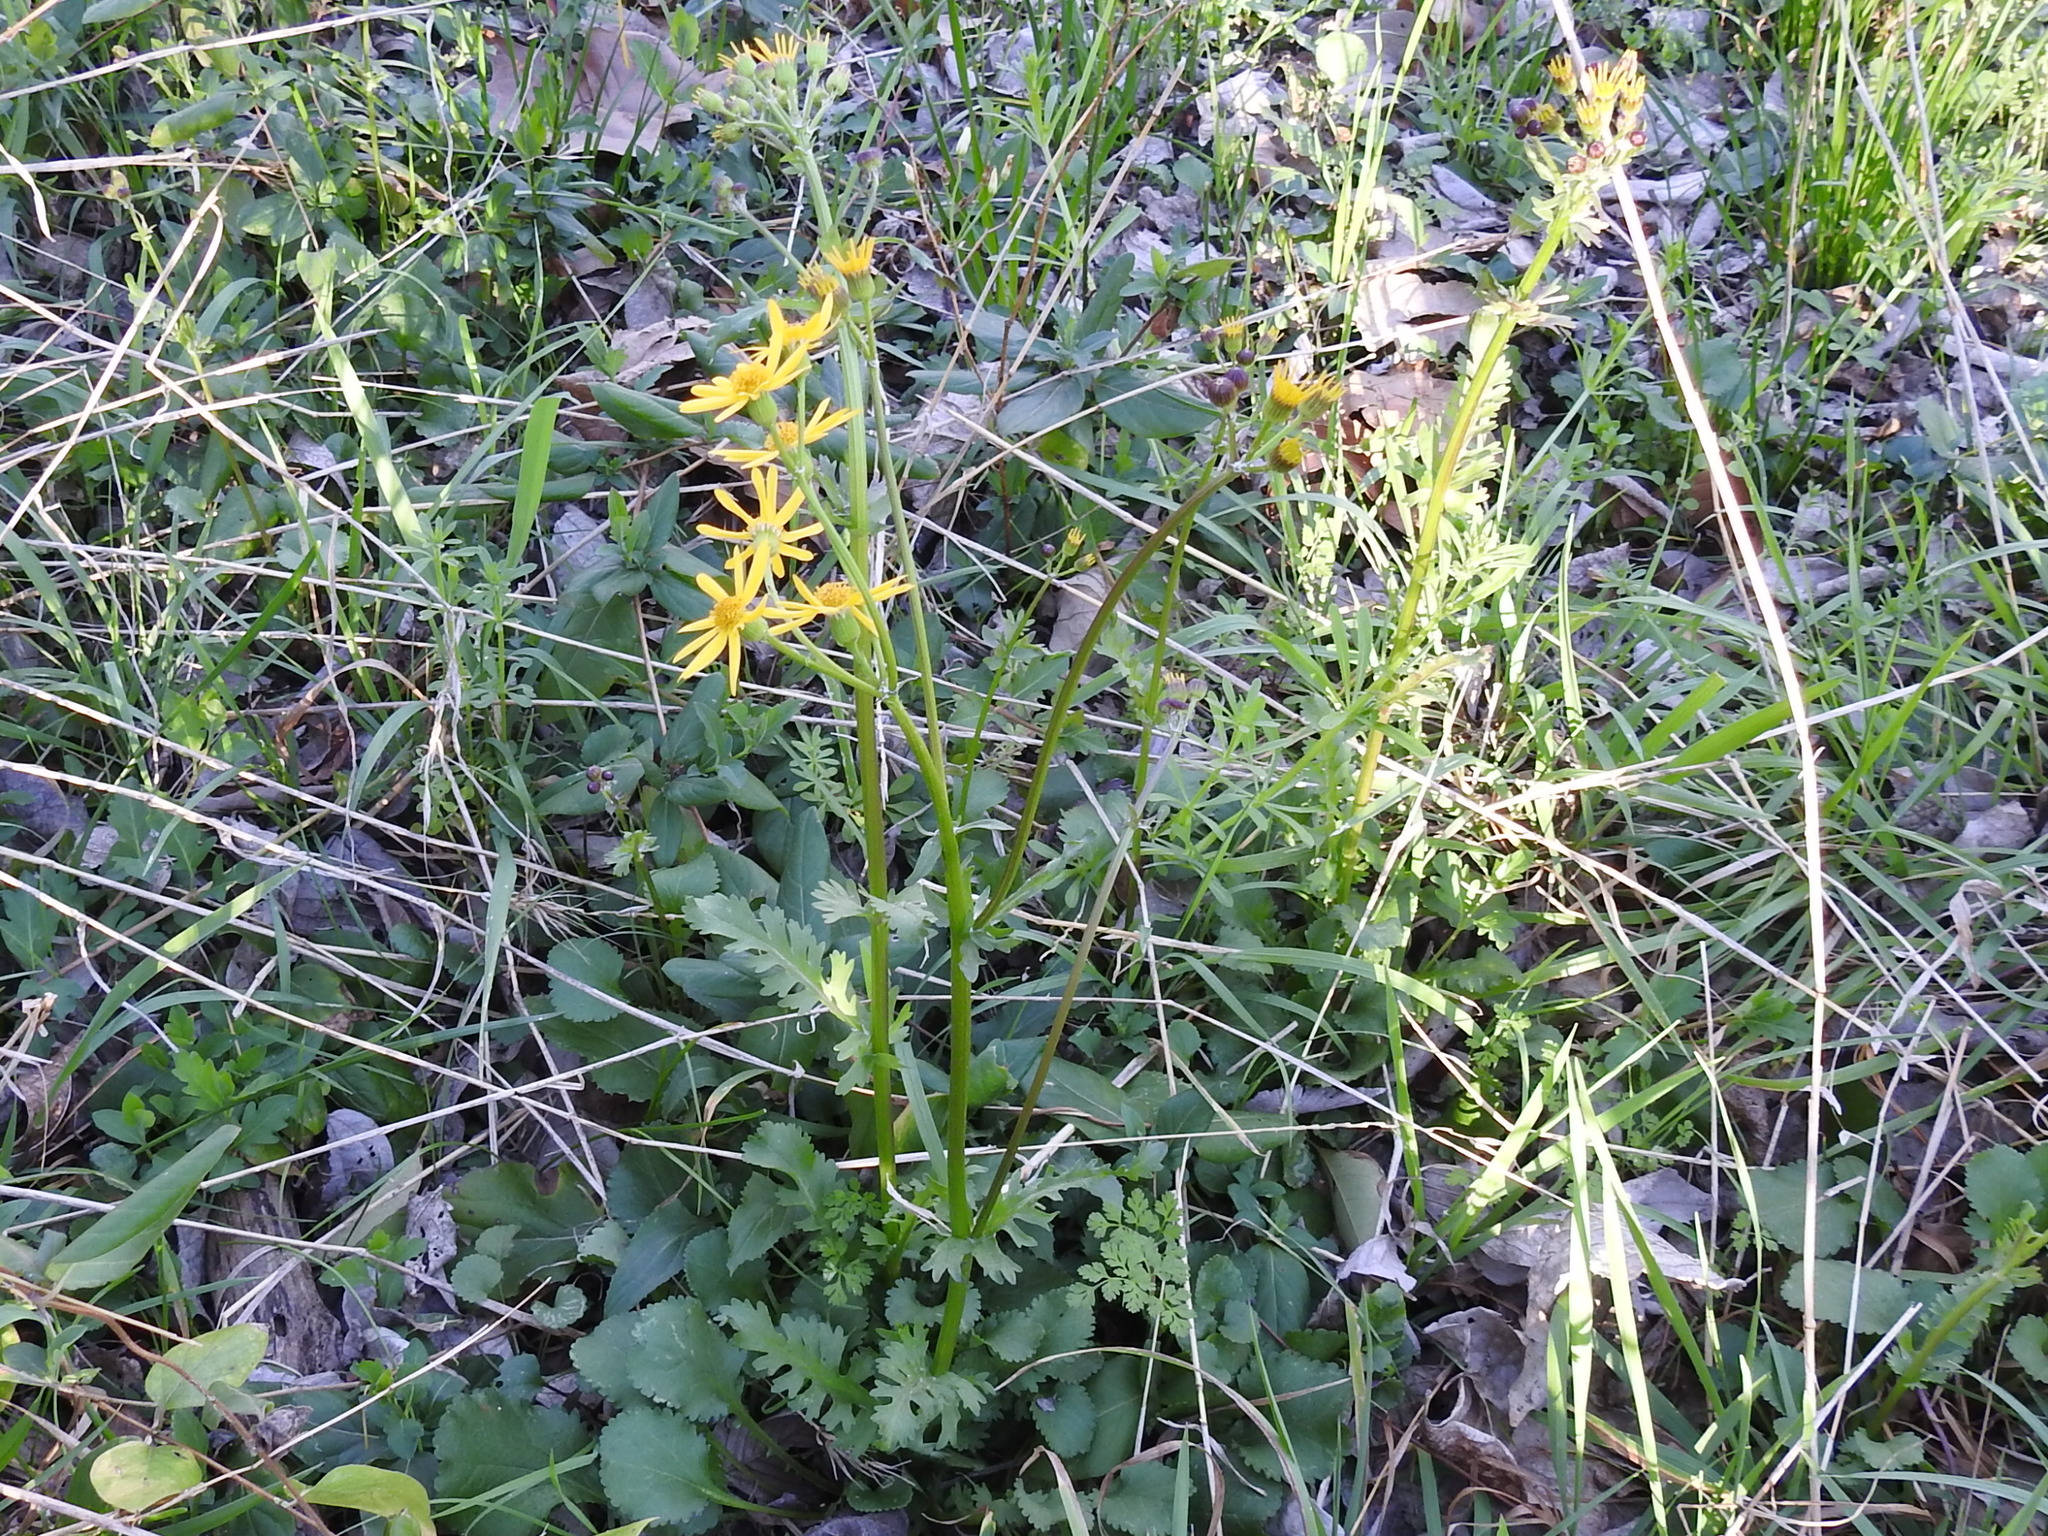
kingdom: Plantae
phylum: Tracheophyta
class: Magnoliopsida
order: Asterales
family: Asteraceae
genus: Packera
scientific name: Packera obovata
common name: Round-leaf ragwort
